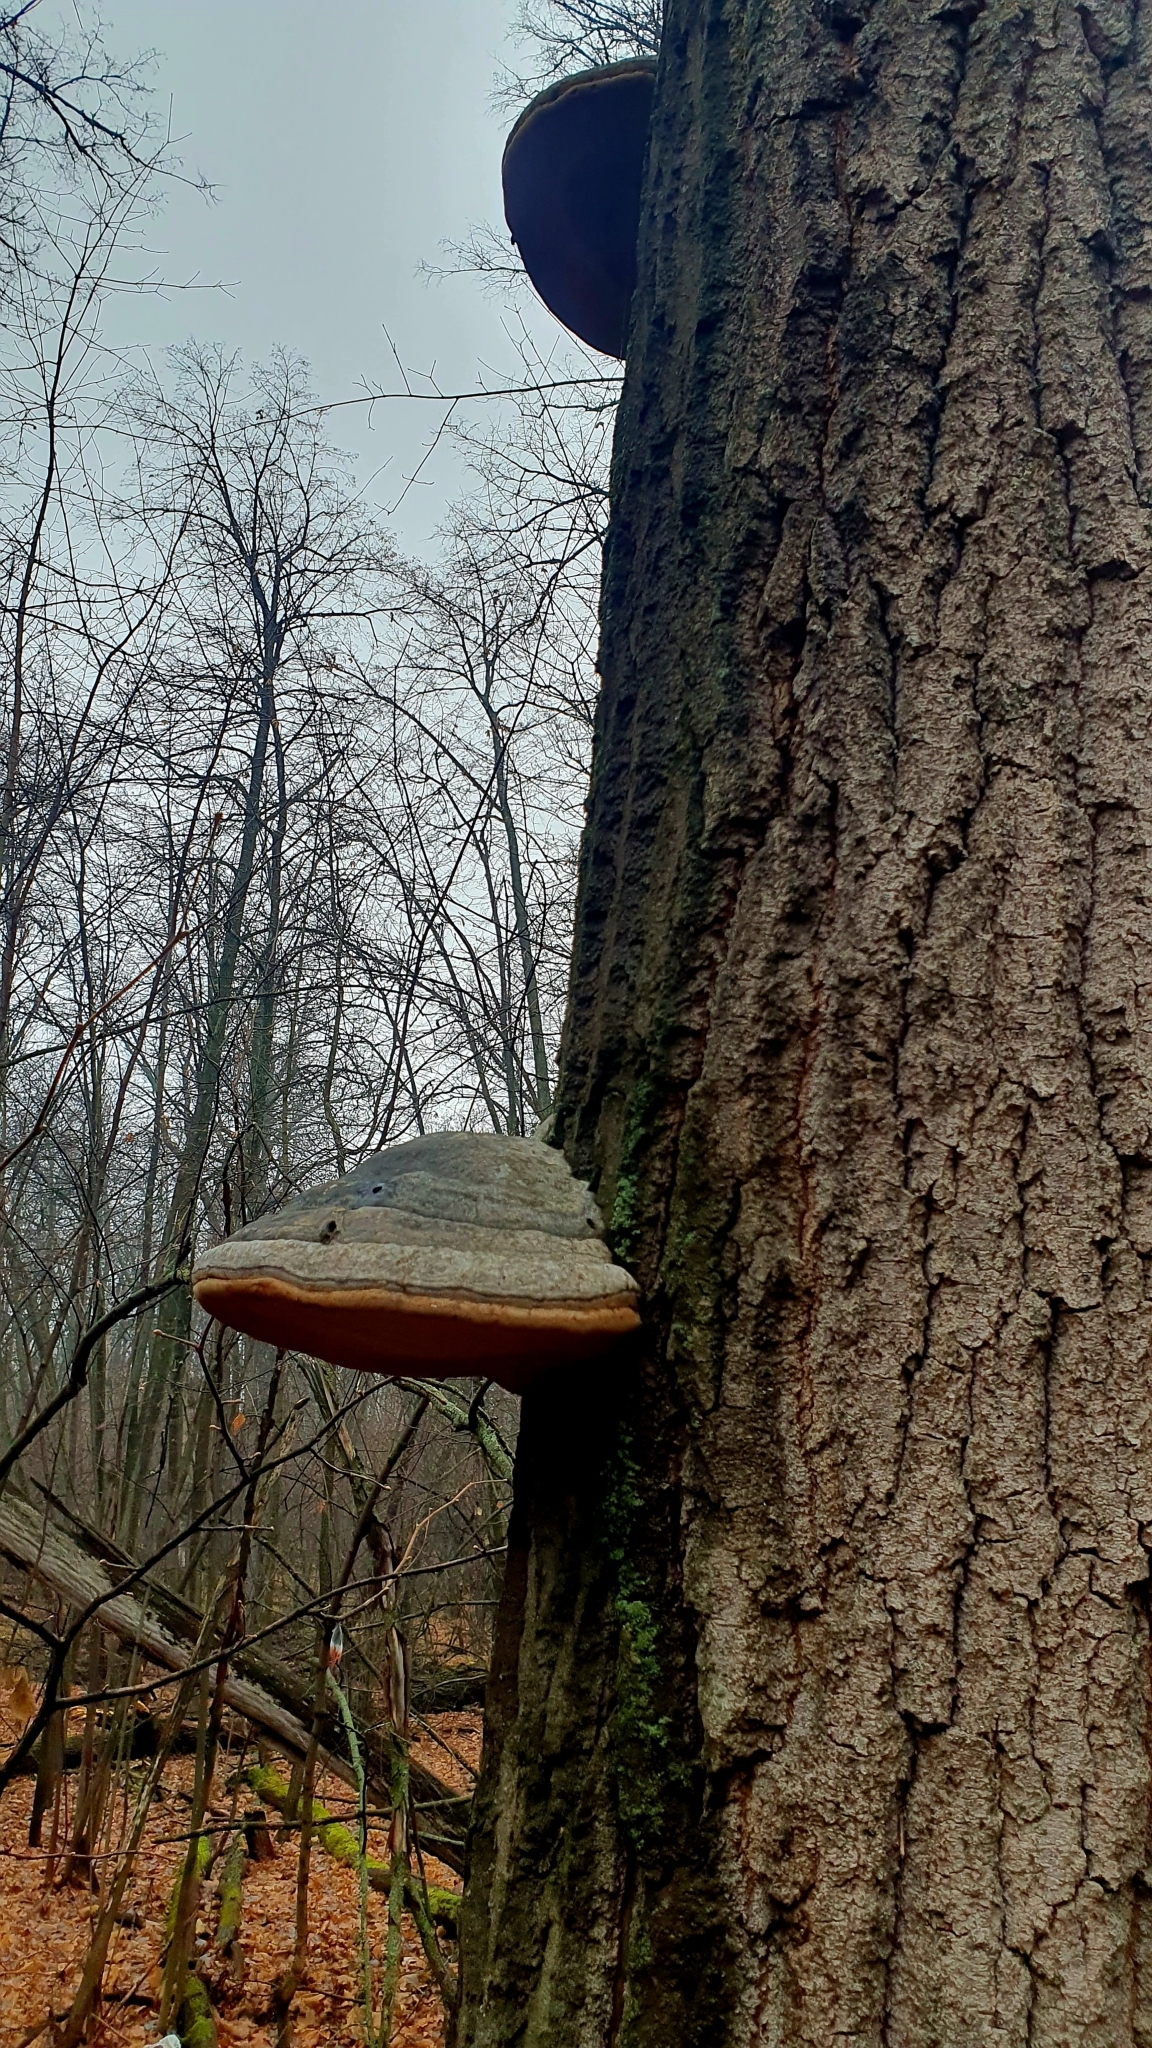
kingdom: Fungi
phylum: Basidiomycota
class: Agaricomycetes
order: Polyporales
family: Polyporaceae
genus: Fomes
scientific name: Fomes fomentarius
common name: Hoof fungus
